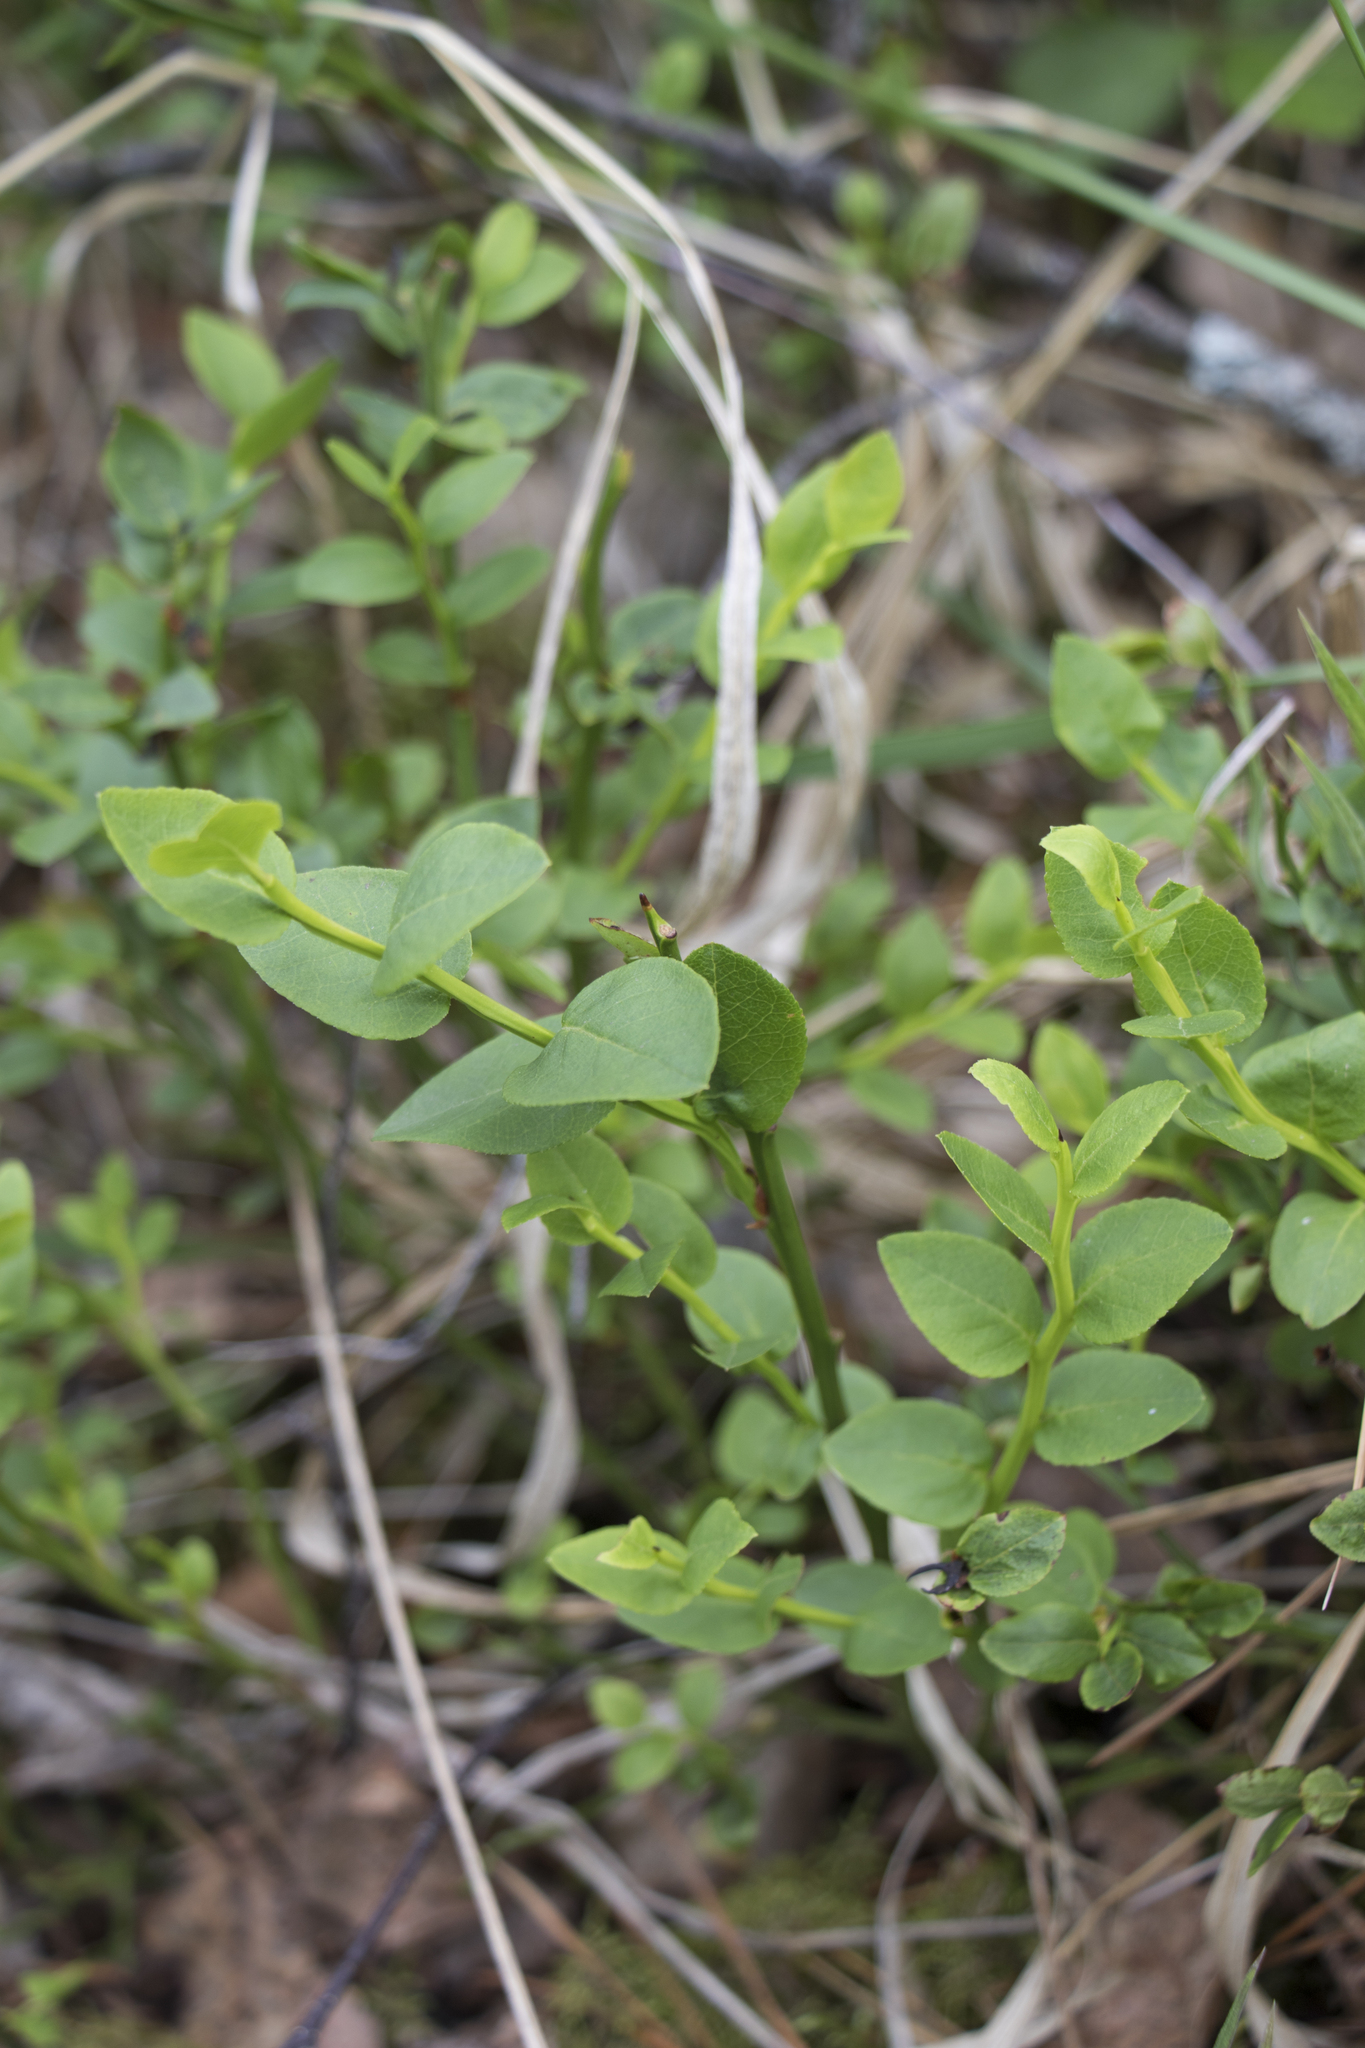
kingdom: Plantae
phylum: Tracheophyta
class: Magnoliopsida
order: Ericales
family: Ericaceae
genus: Vaccinium
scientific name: Vaccinium myrtillus
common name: Bilberry
